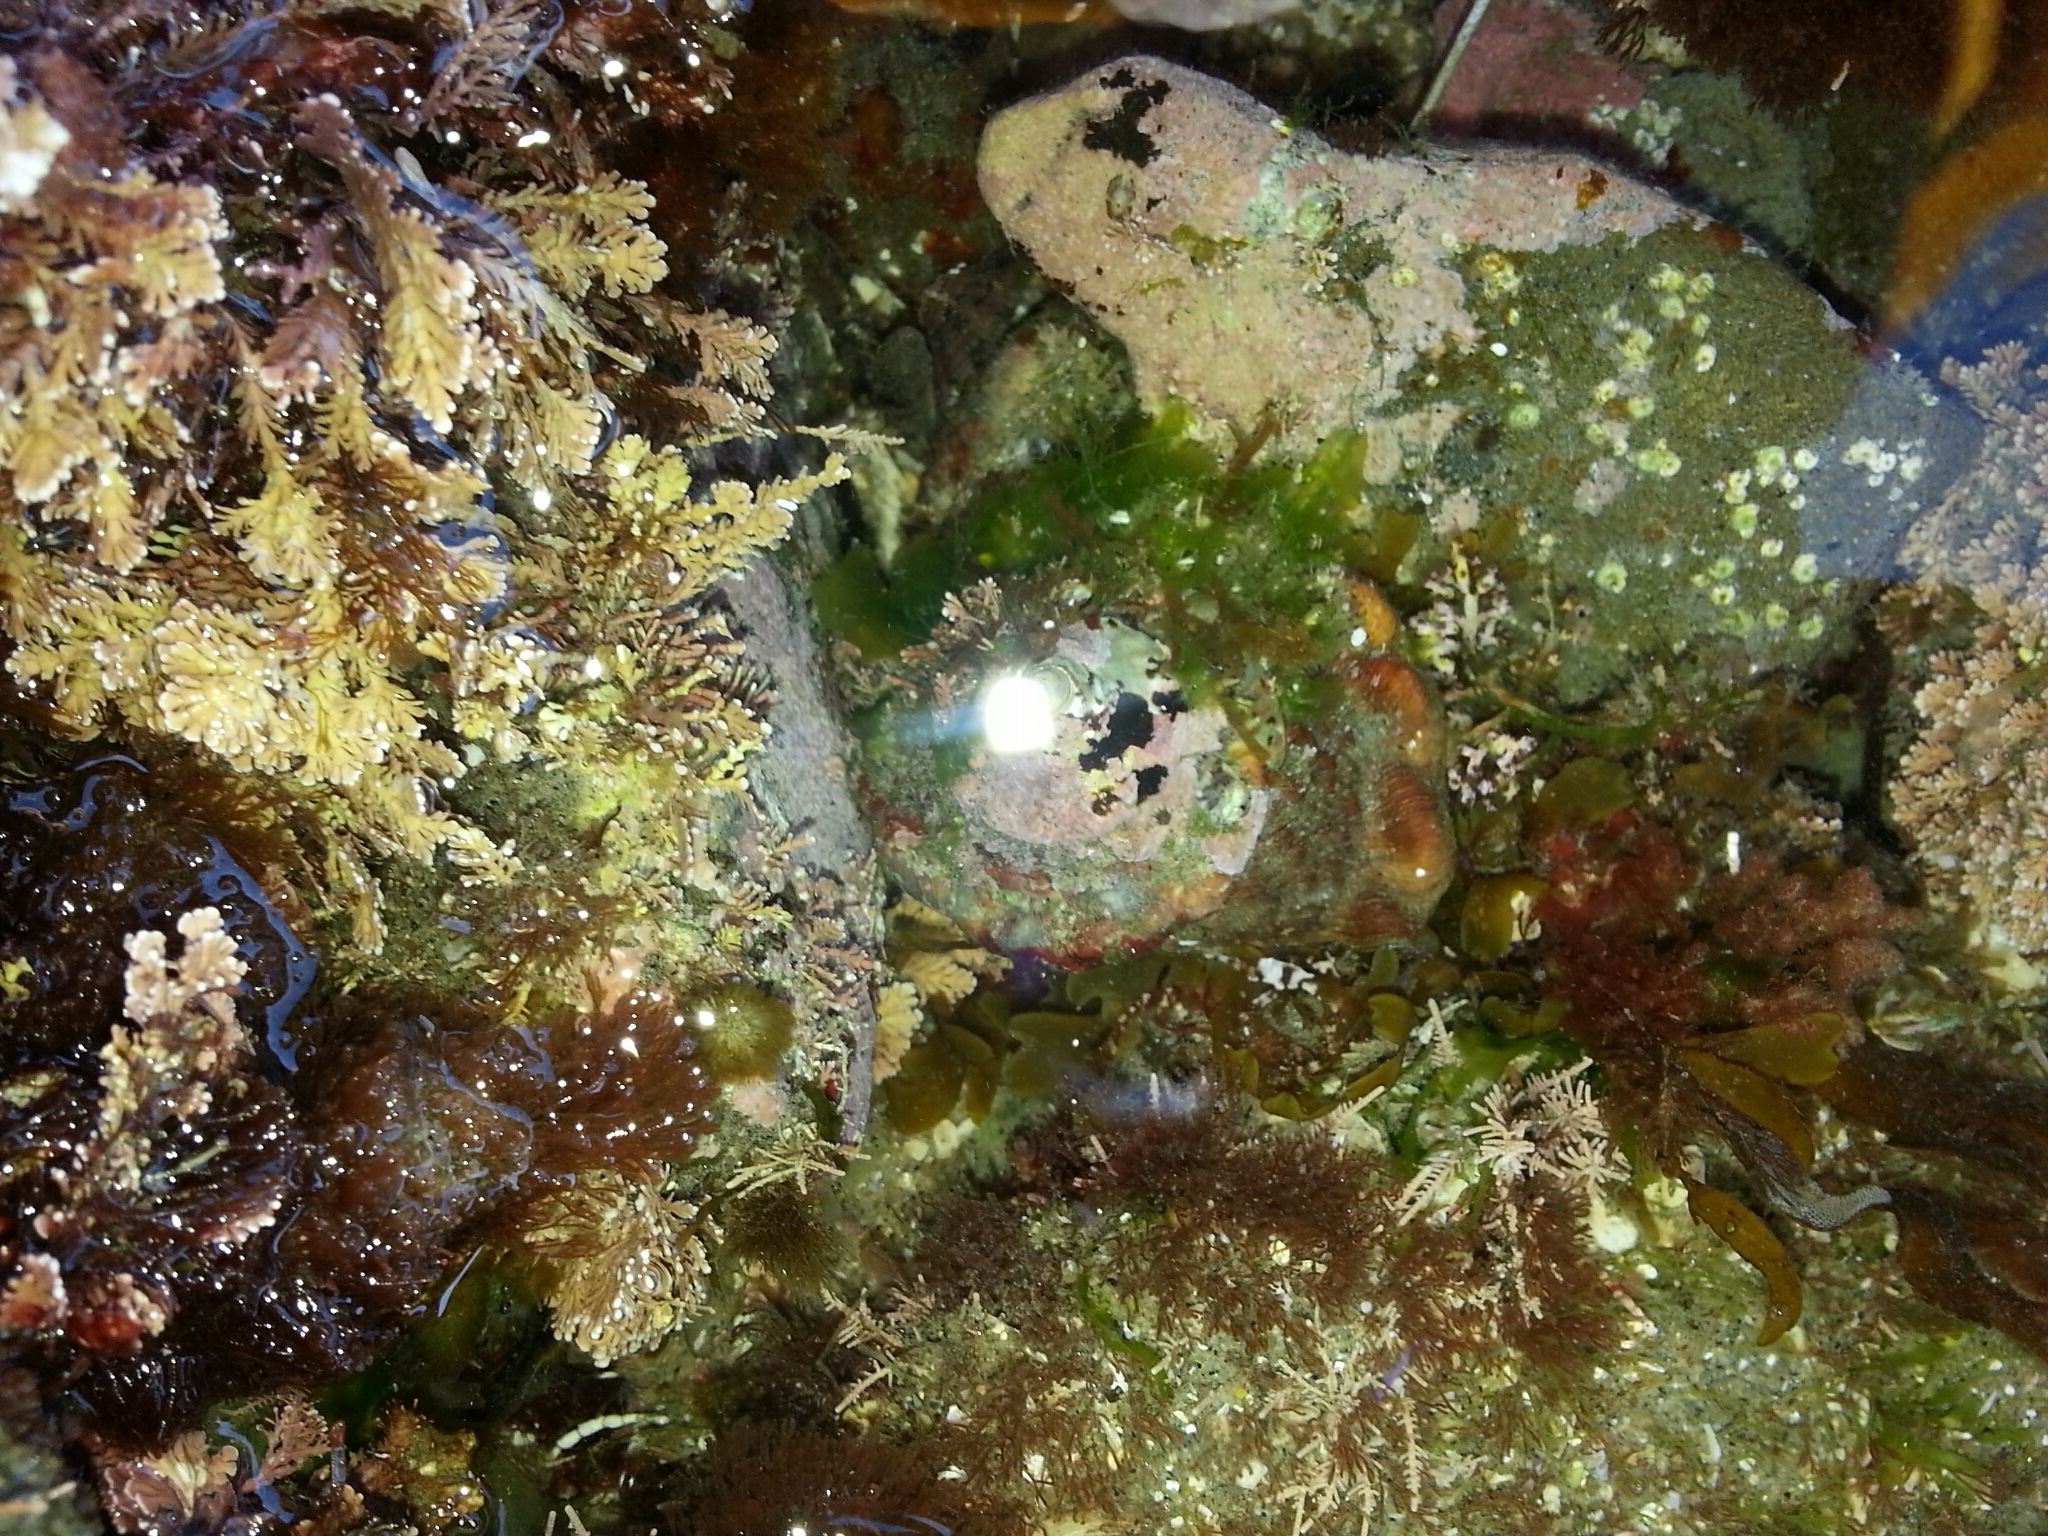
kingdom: Animalia
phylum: Mollusca
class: Gastropoda
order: Trochida
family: Turbinidae
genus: Megastraea
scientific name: Megastraea undosa
